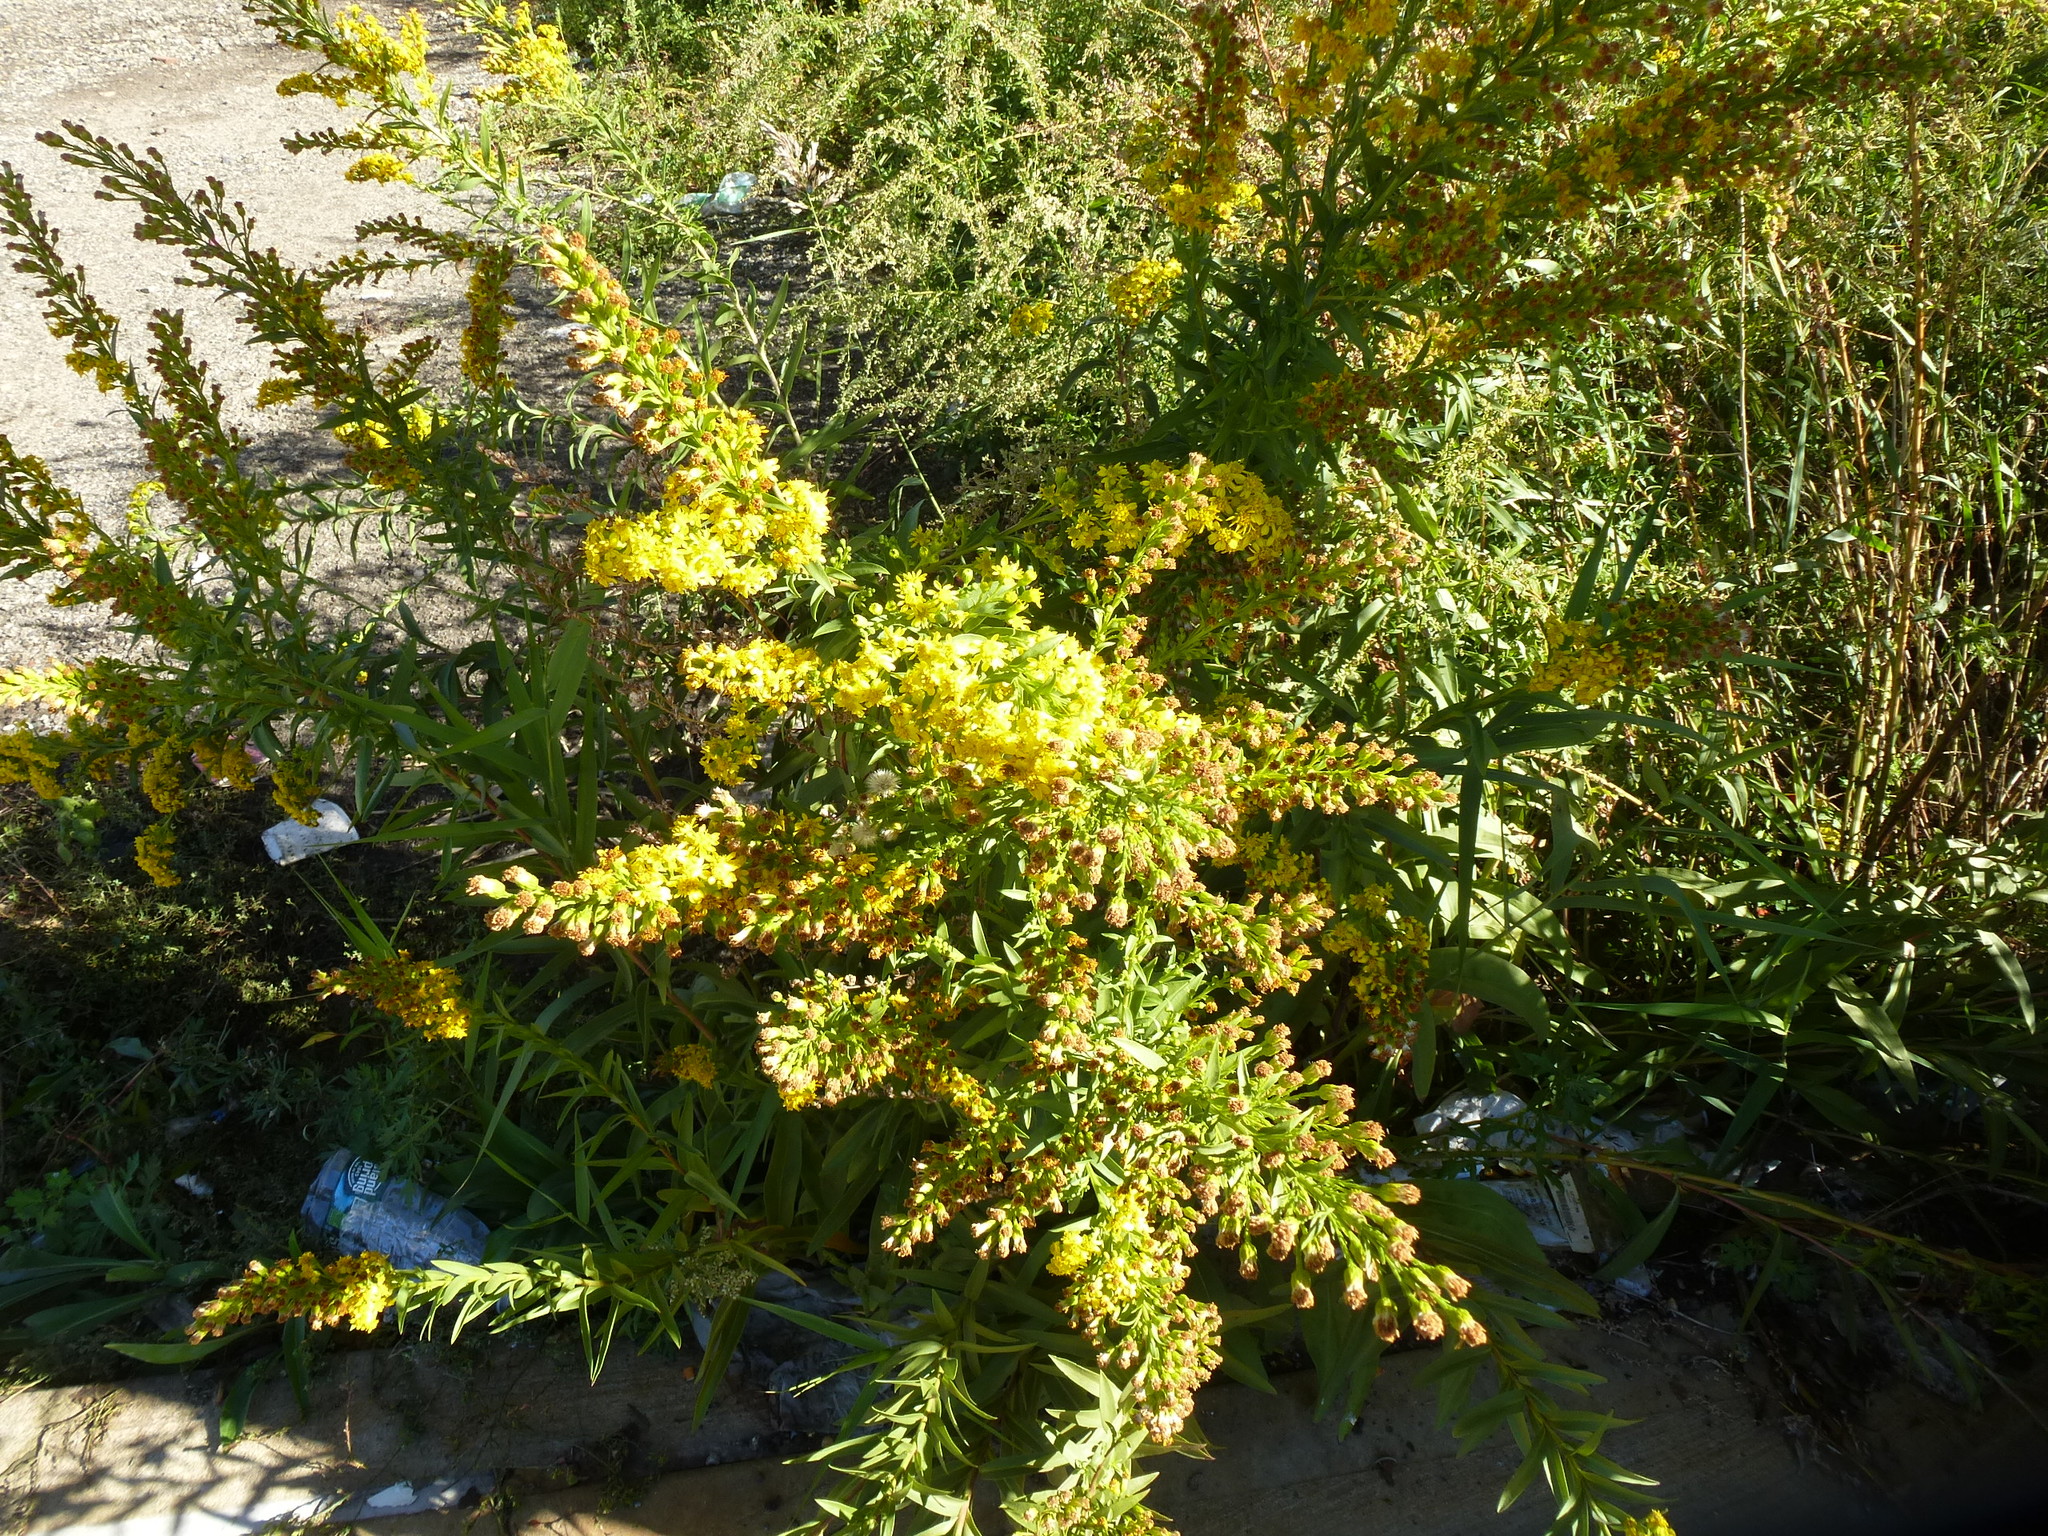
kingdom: Plantae
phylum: Tracheophyta
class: Magnoliopsida
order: Asterales
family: Asteraceae
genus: Solidago
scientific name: Solidago sempervirens
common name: Salt-marsh goldenrod
